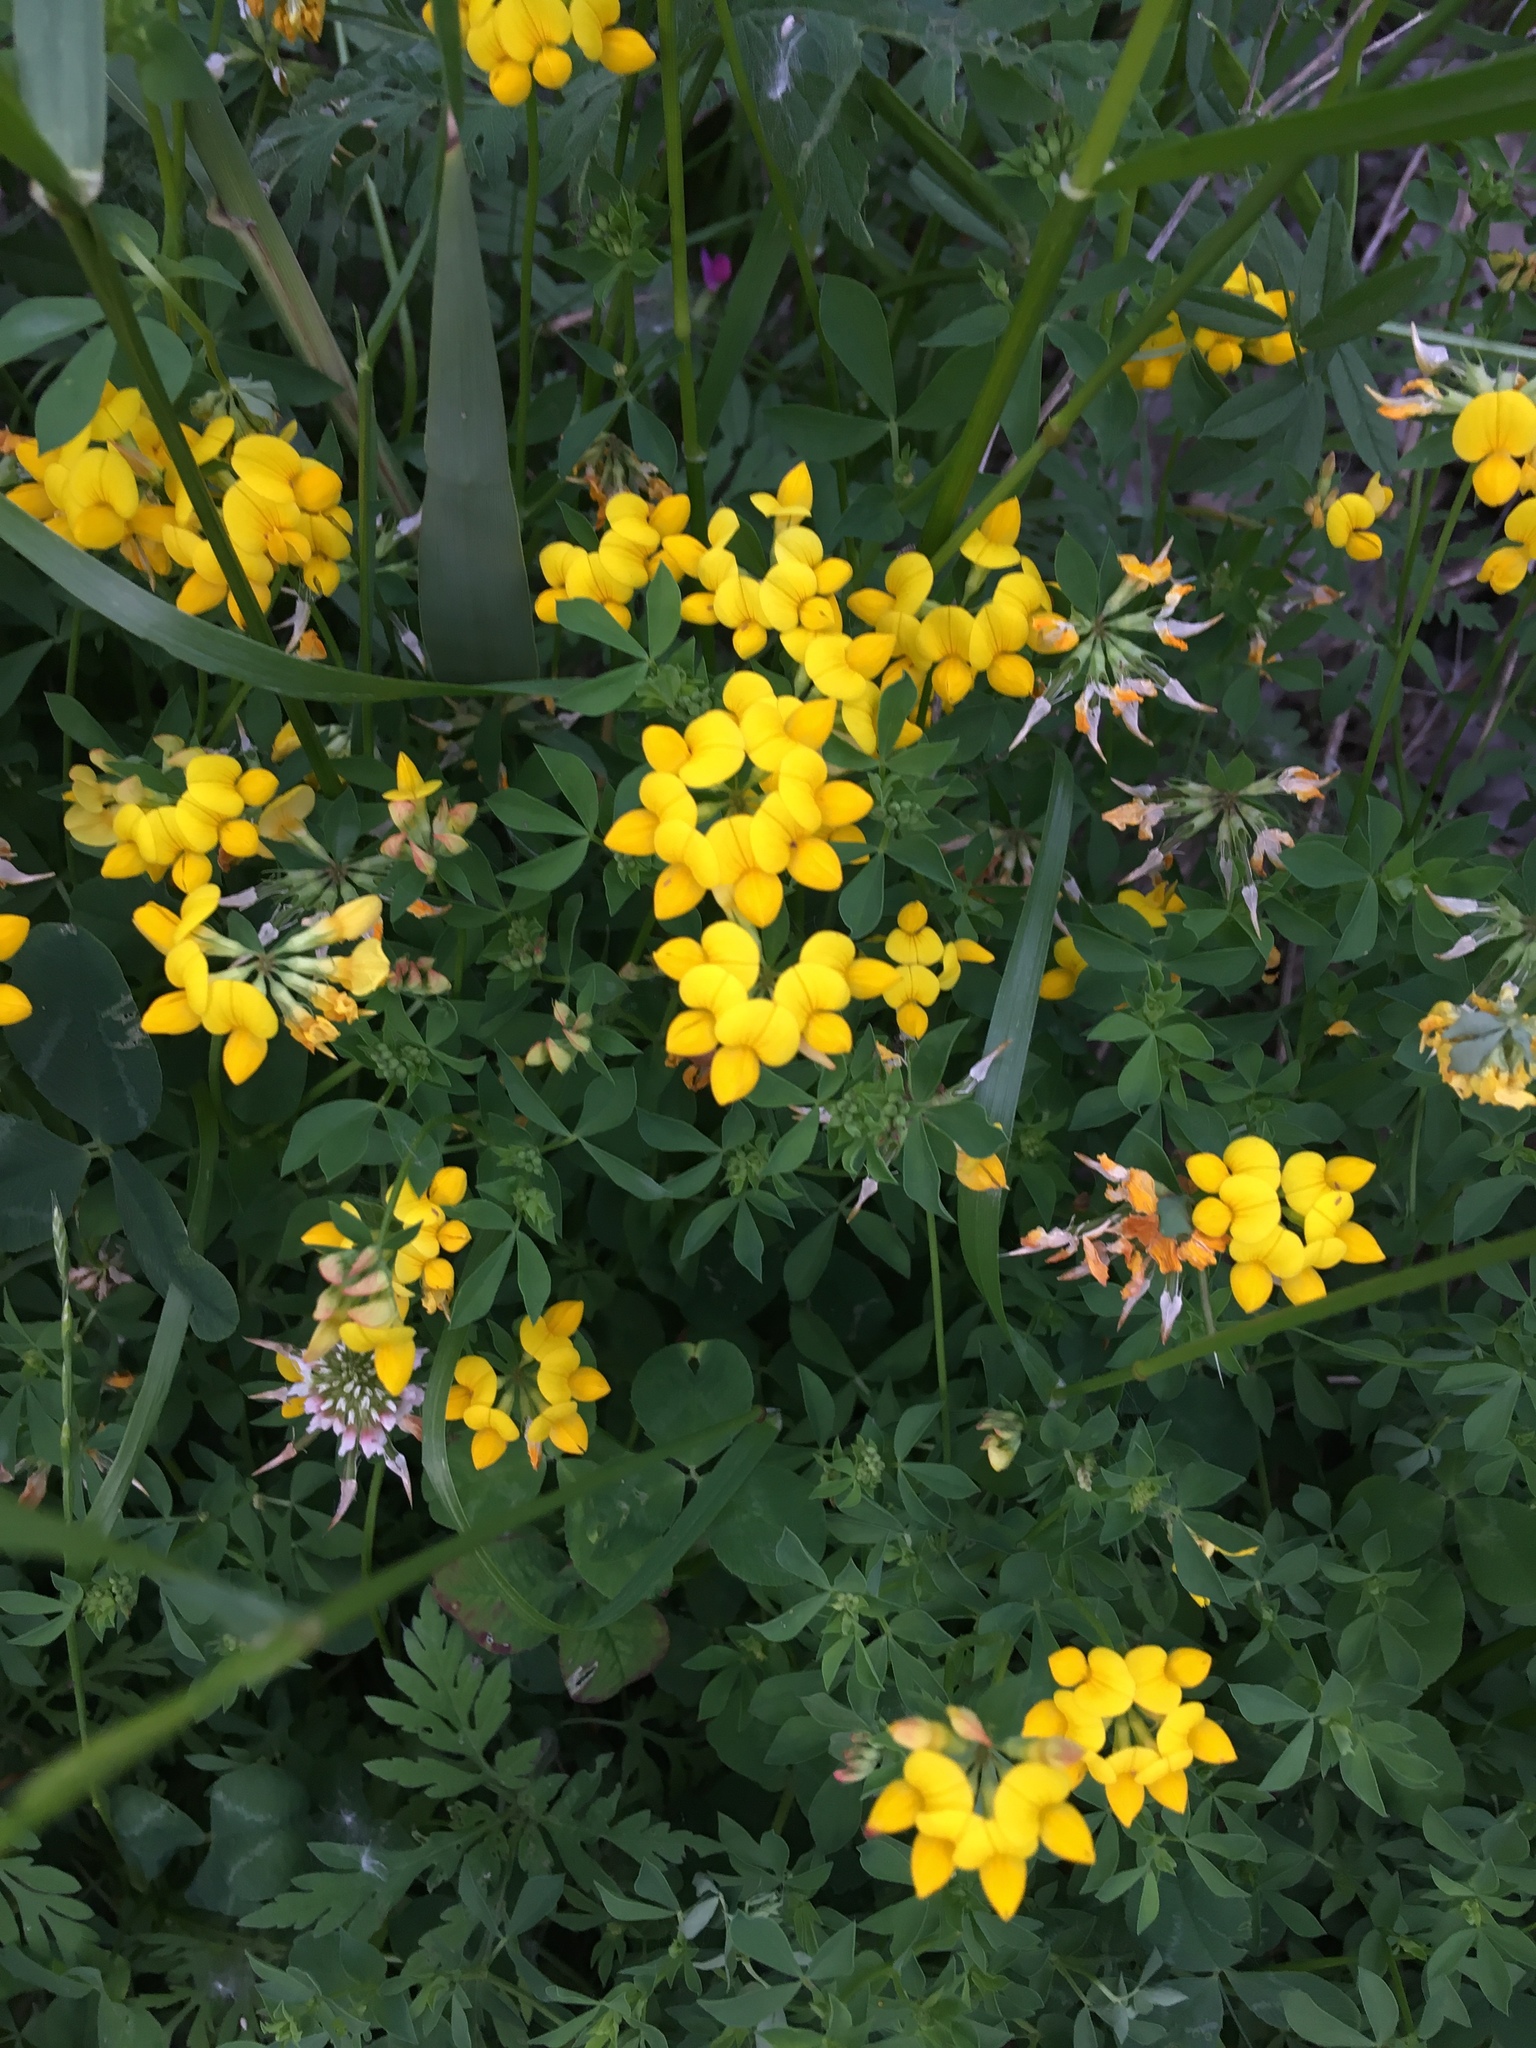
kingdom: Plantae
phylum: Tracheophyta
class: Magnoliopsida
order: Fabales
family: Fabaceae
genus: Lotus
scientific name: Lotus corniculatus
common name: Common bird's-foot-trefoil
